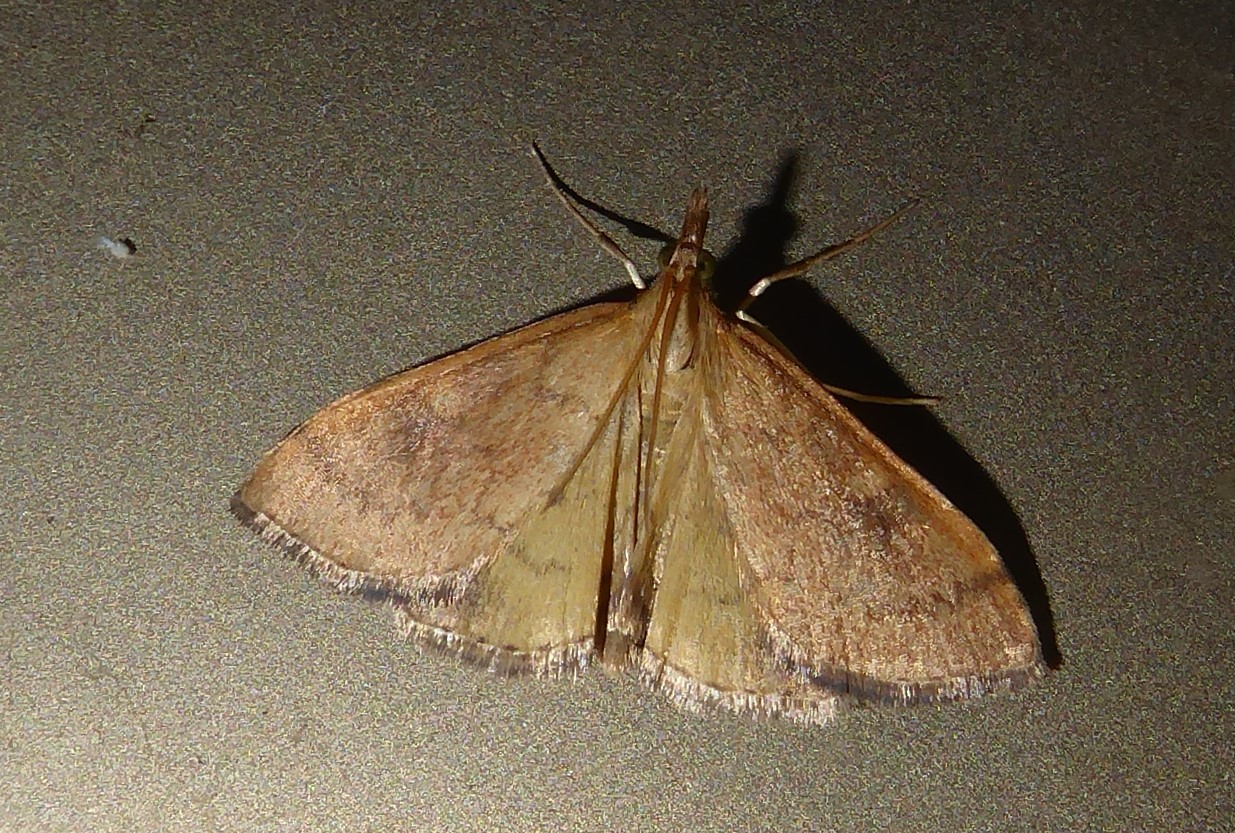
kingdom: Animalia
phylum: Arthropoda
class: Insecta
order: Lepidoptera
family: Crambidae
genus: Udea
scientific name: Udea Mnesictena flavidalis
